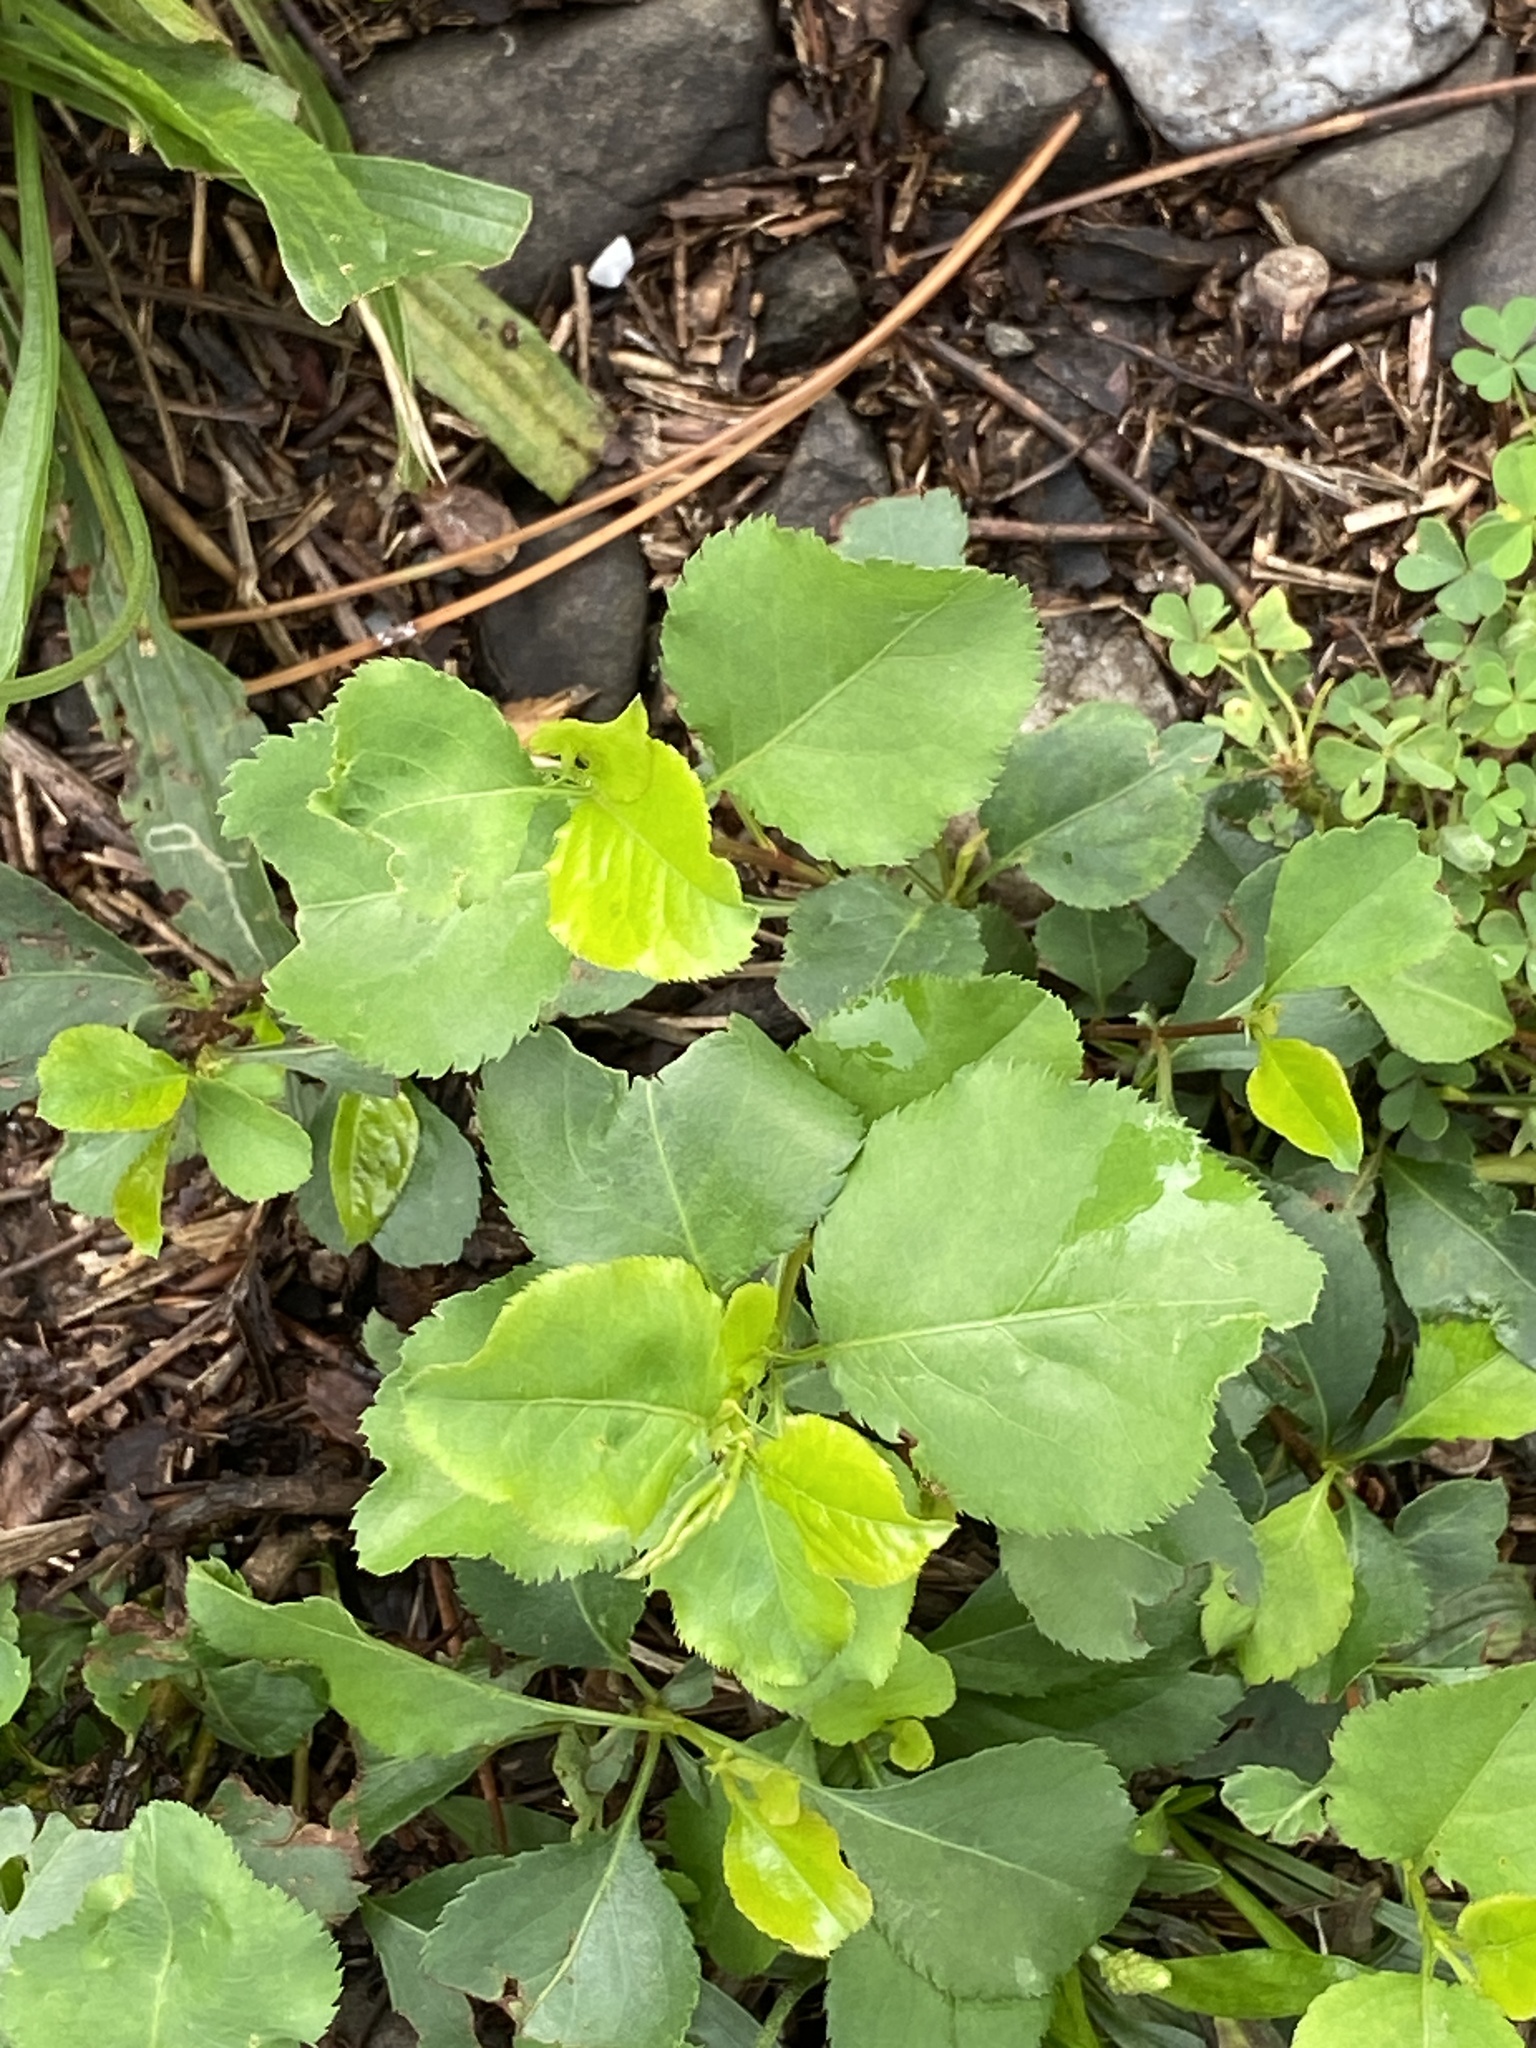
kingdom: Plantae
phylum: Tracheophyta
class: Magnoliopsida
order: Rosales
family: Rosaceae
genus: Pyrus
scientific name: Pyrus calleryana
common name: Callery pear
